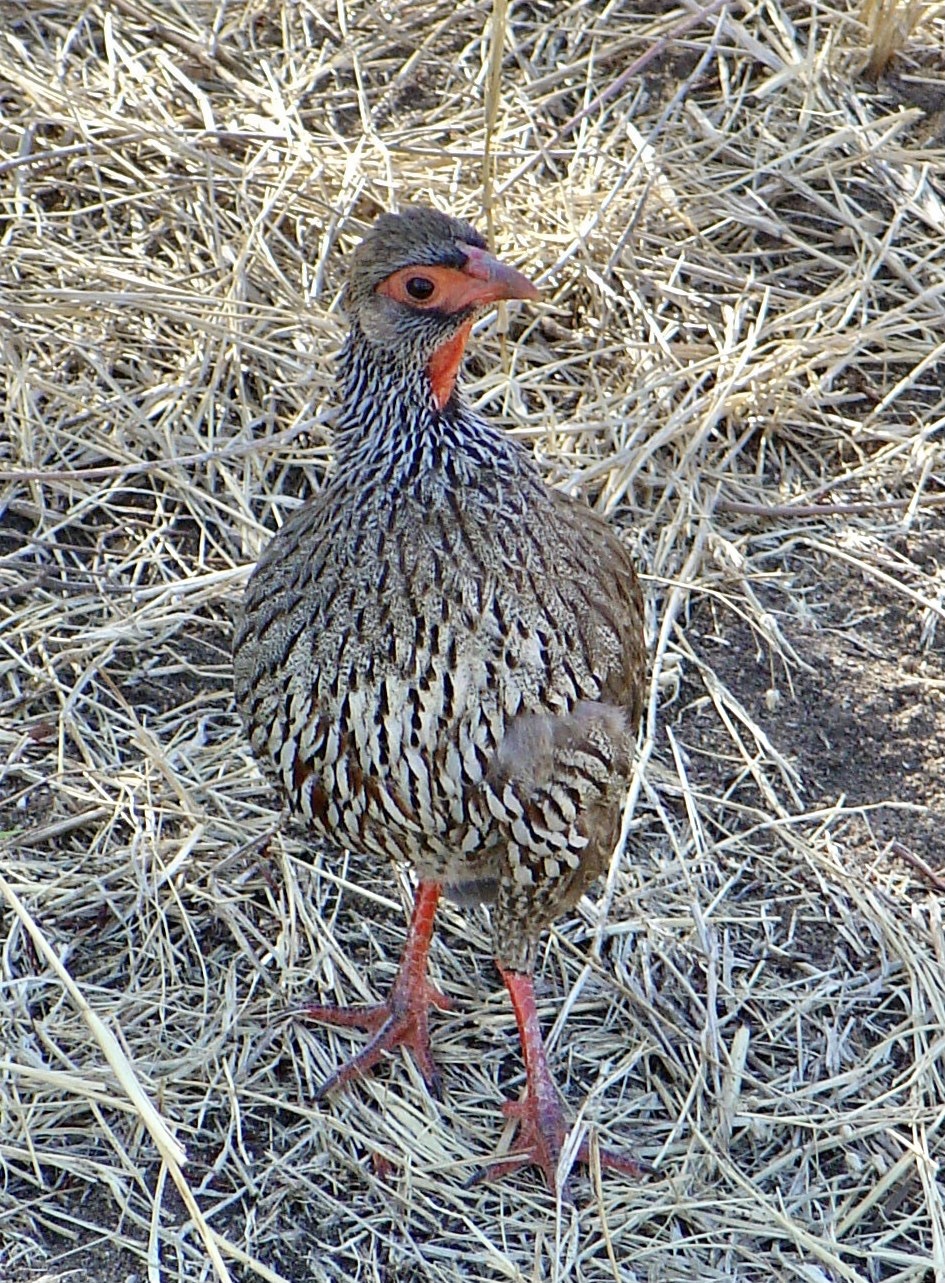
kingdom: Animalia
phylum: Chordata
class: Aves
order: Galliformes
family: Phasianidae
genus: Pternistis
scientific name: Pternistis afer
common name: Red-necked spurfowl
